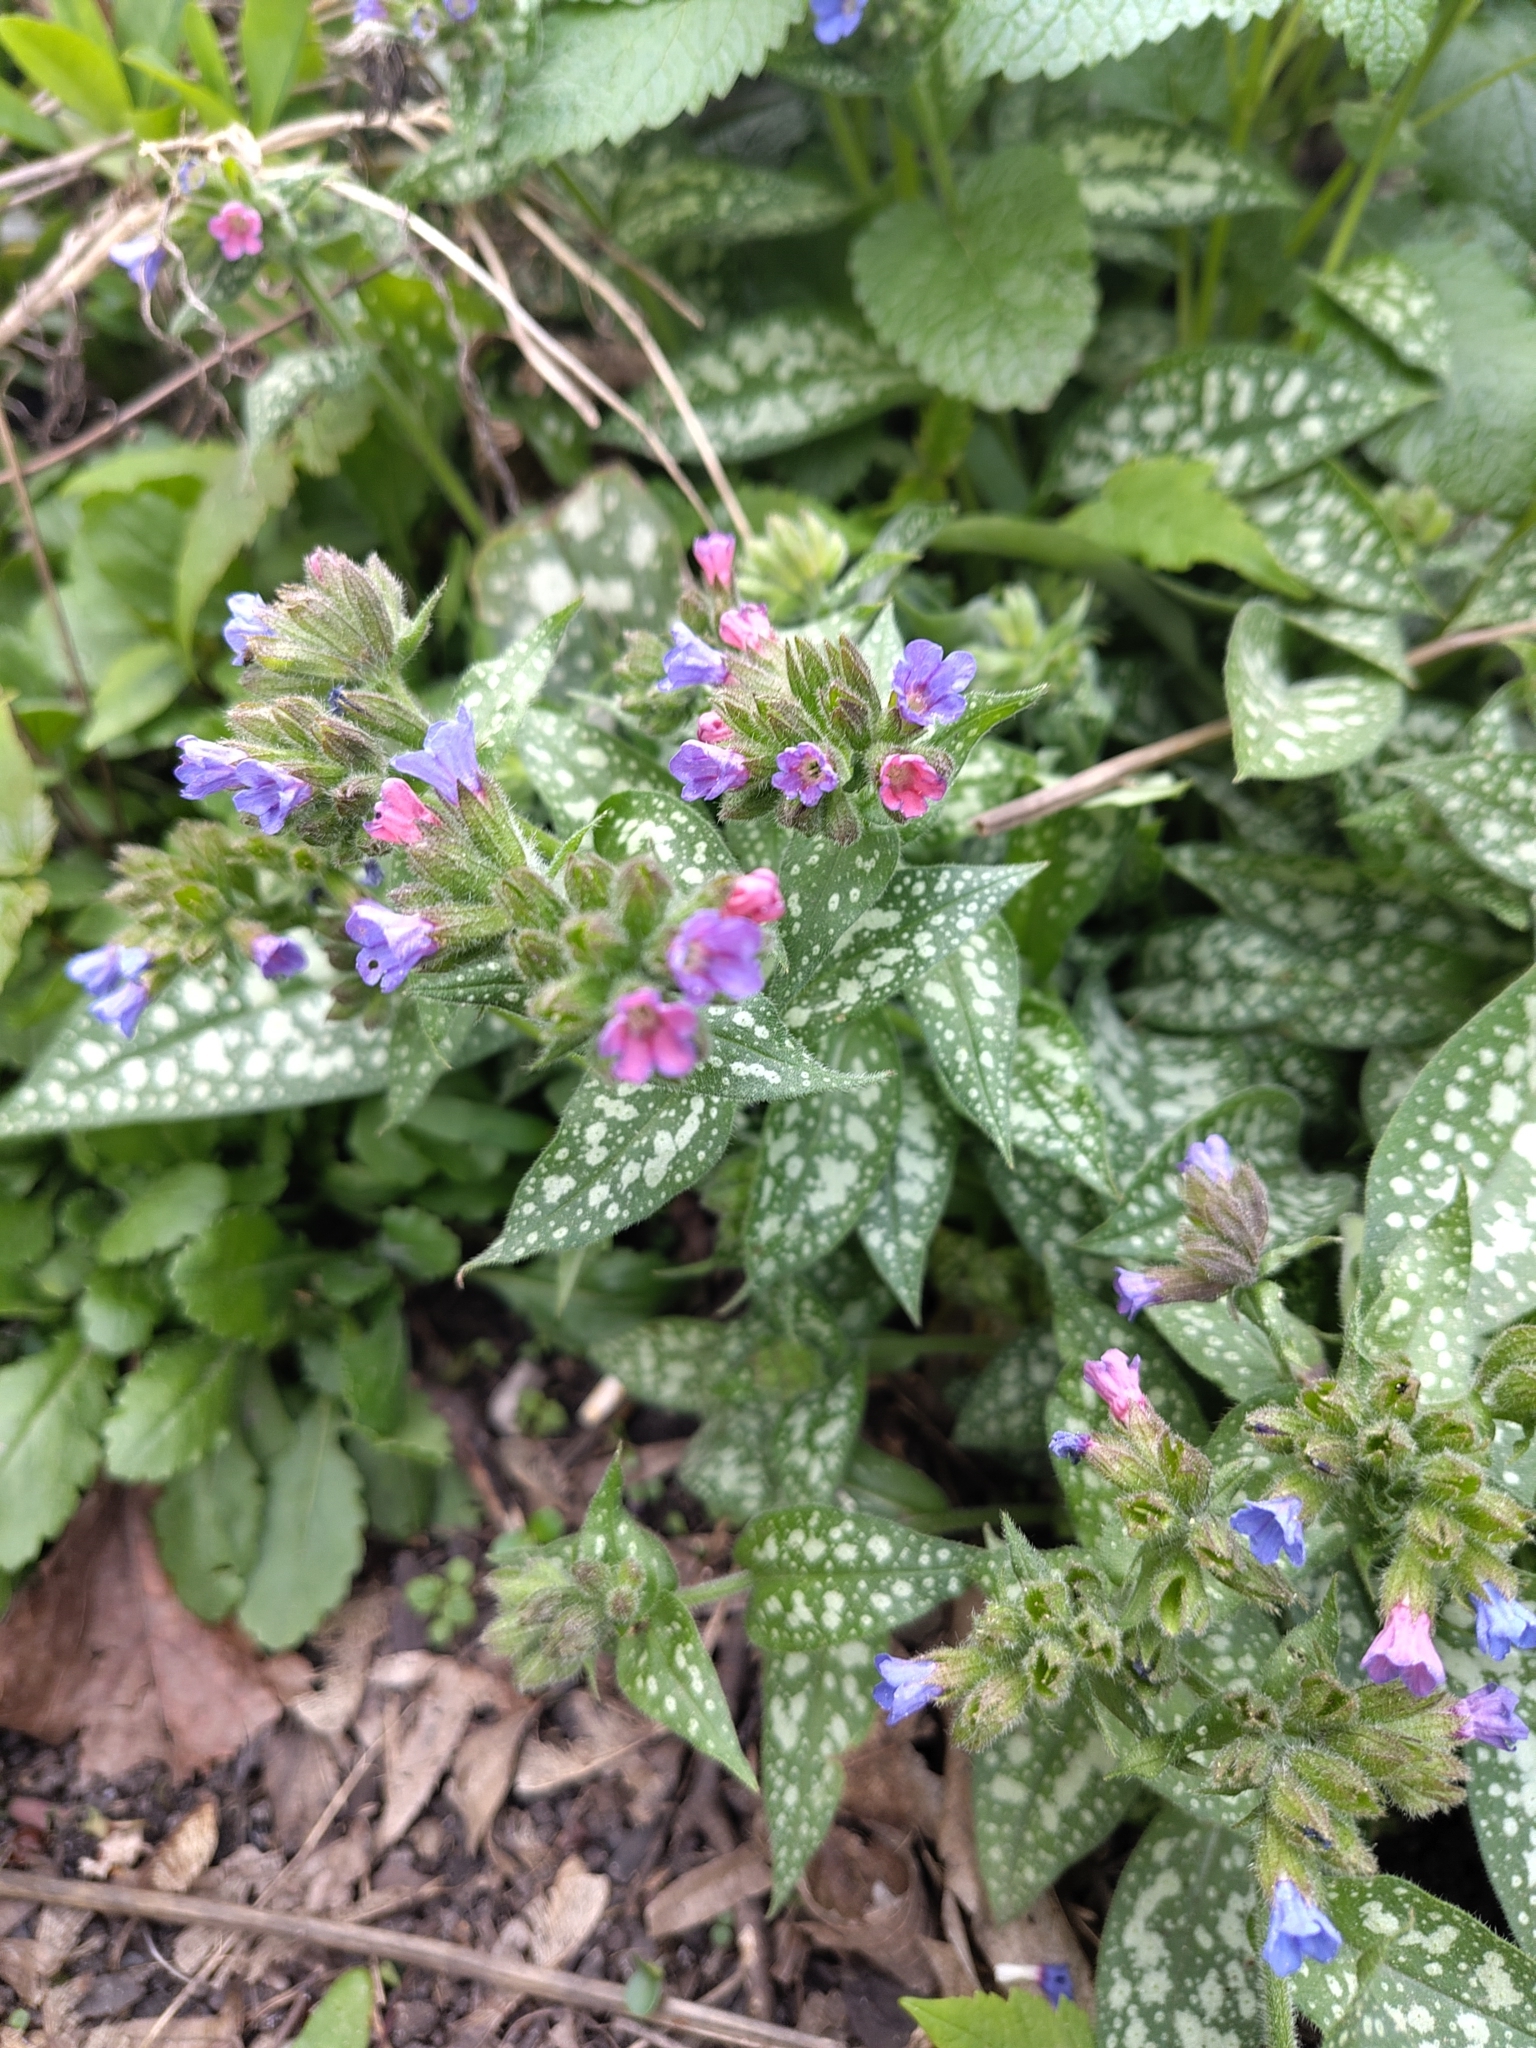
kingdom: Plantae
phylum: Tracheophyta
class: Magnoliopsida
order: Boraginales
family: Boraginaceae
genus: Pulmonaria
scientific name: Pulmonaria officinalis
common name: Lungwort
